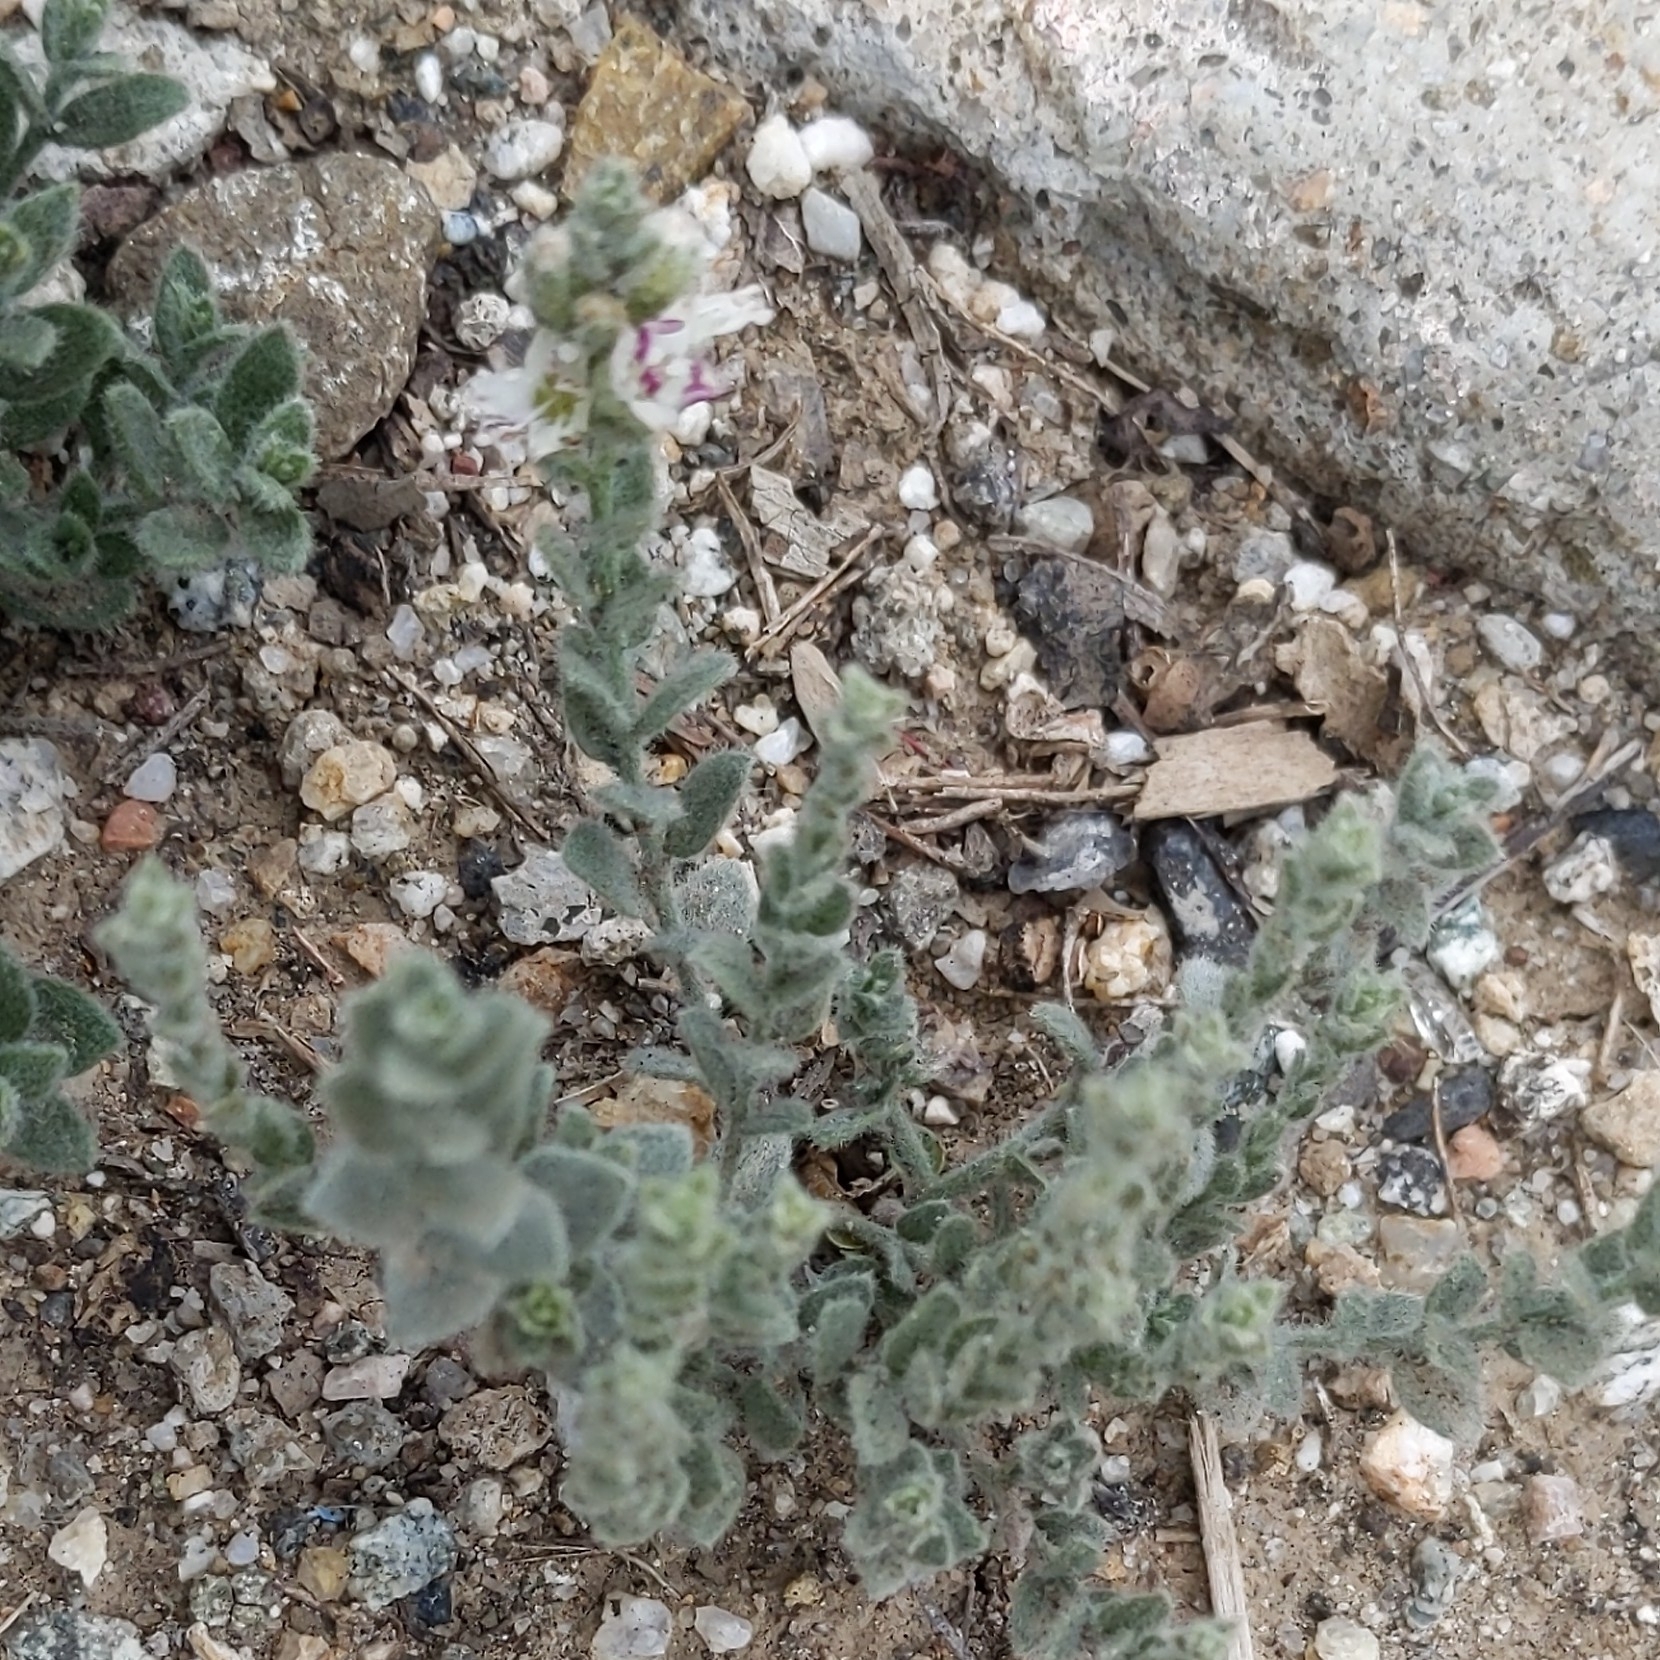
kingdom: Plantae
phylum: Tracheophyta
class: Magnoliopsida
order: Solanales
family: Convolvulaceae
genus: Cressa
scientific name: Cressa truxillensis
